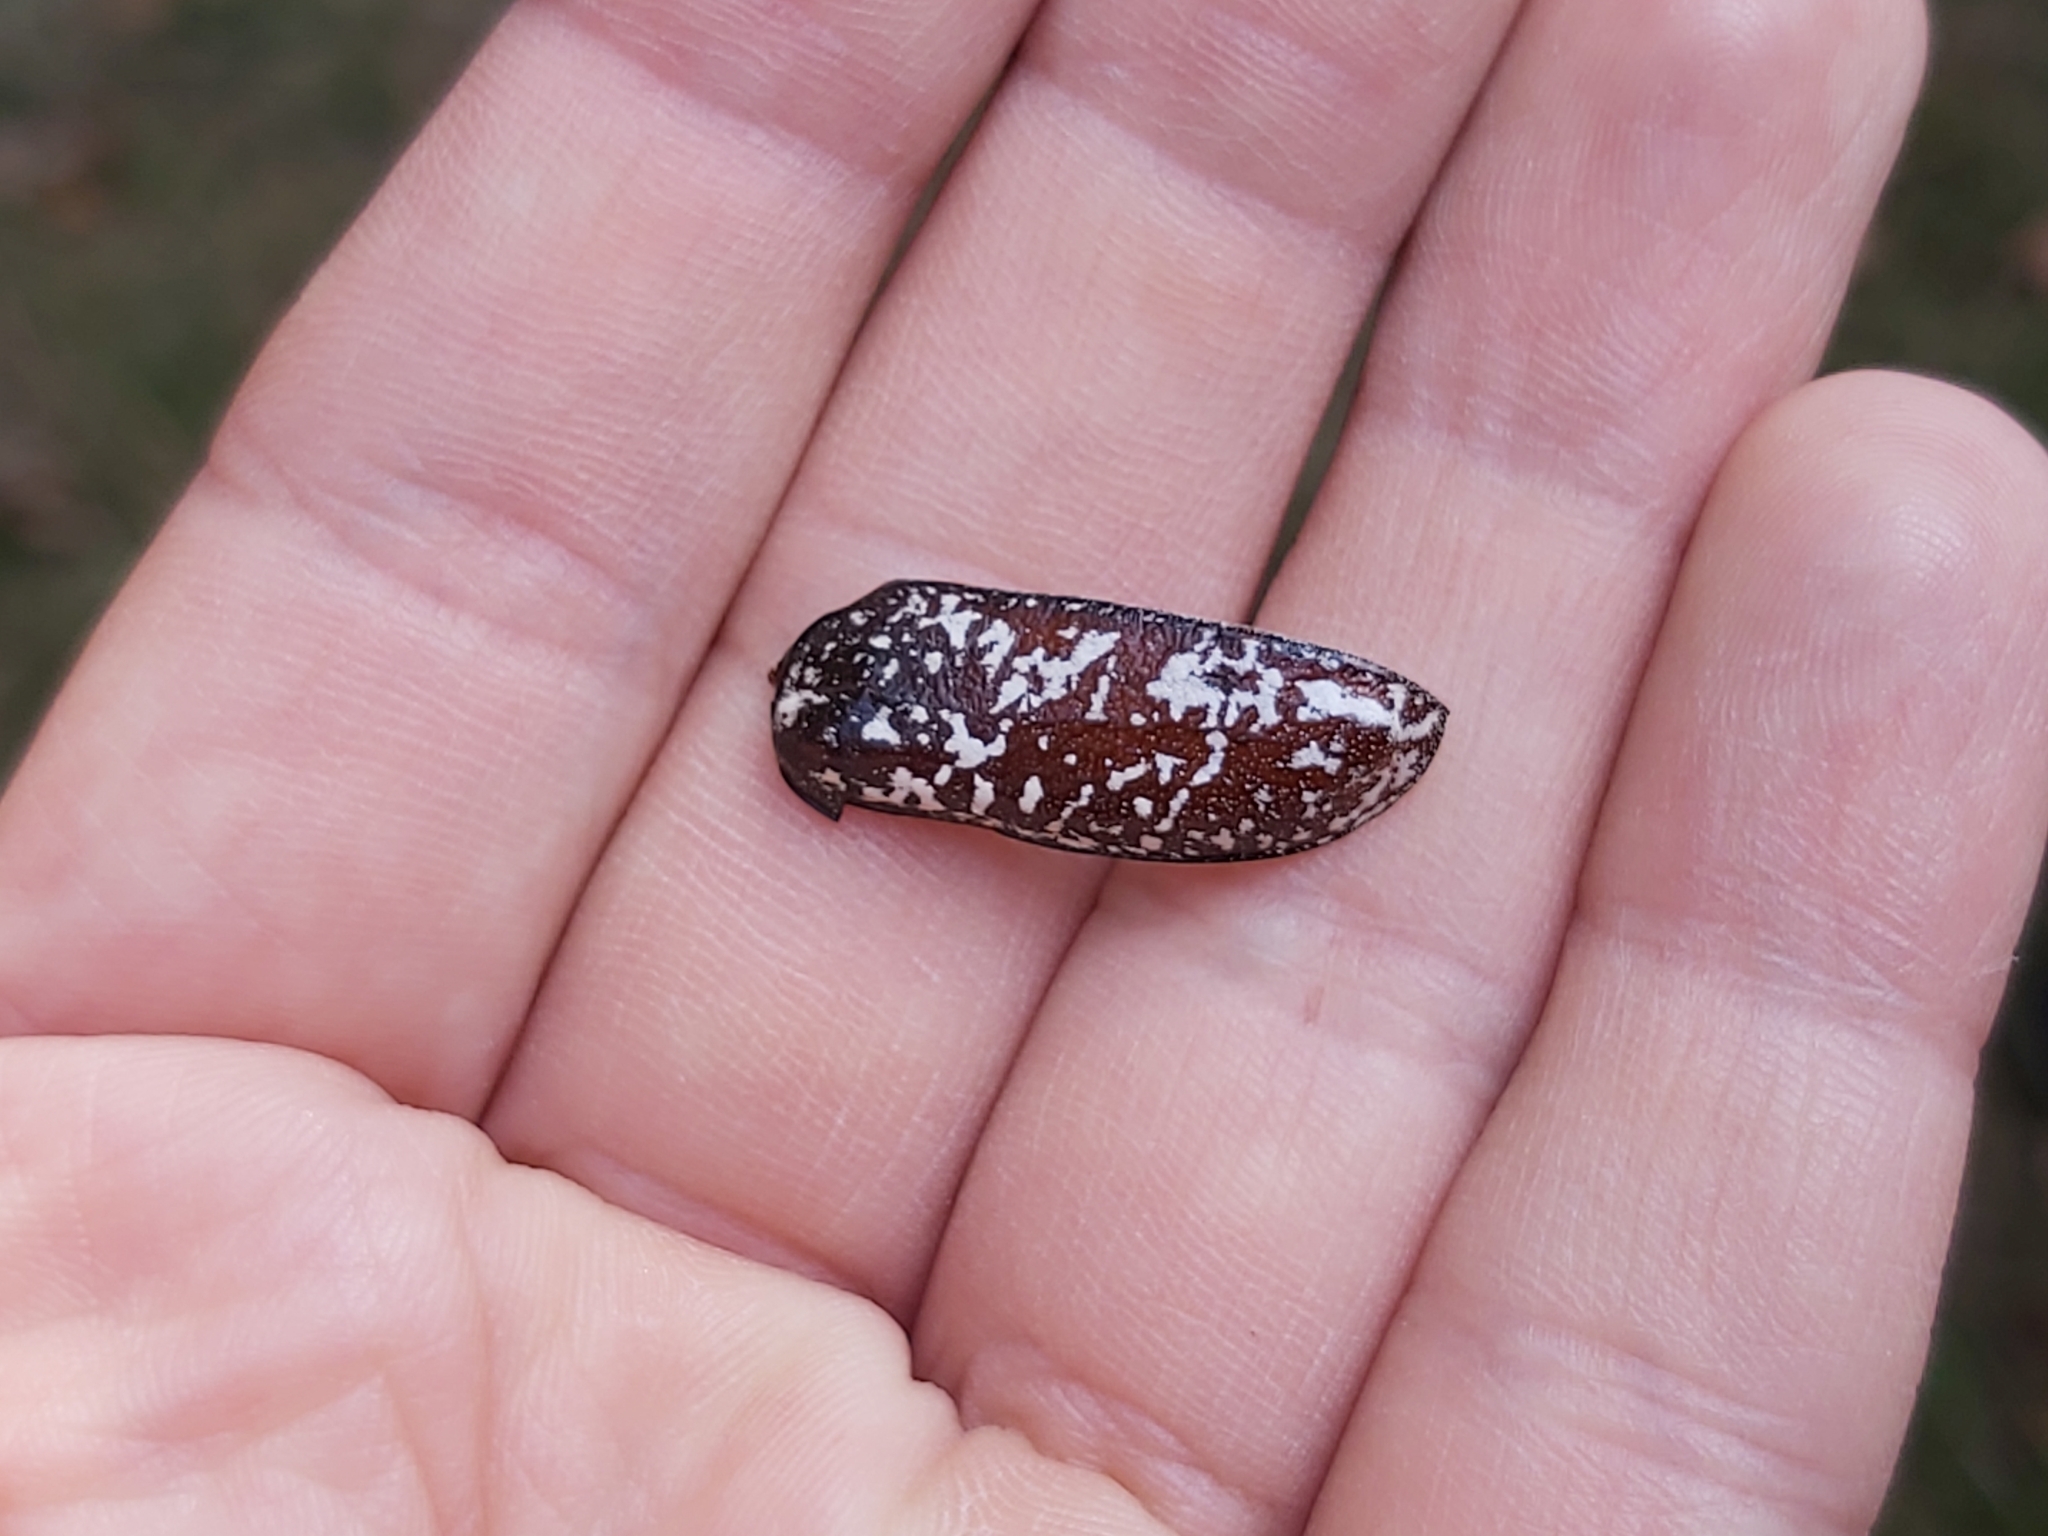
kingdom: Animalia
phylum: Arthropoda
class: Insecta
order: Coleoptera
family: Scarabaeidae
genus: Polyphylla
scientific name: Polyphylla fullo
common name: Pine chafer
